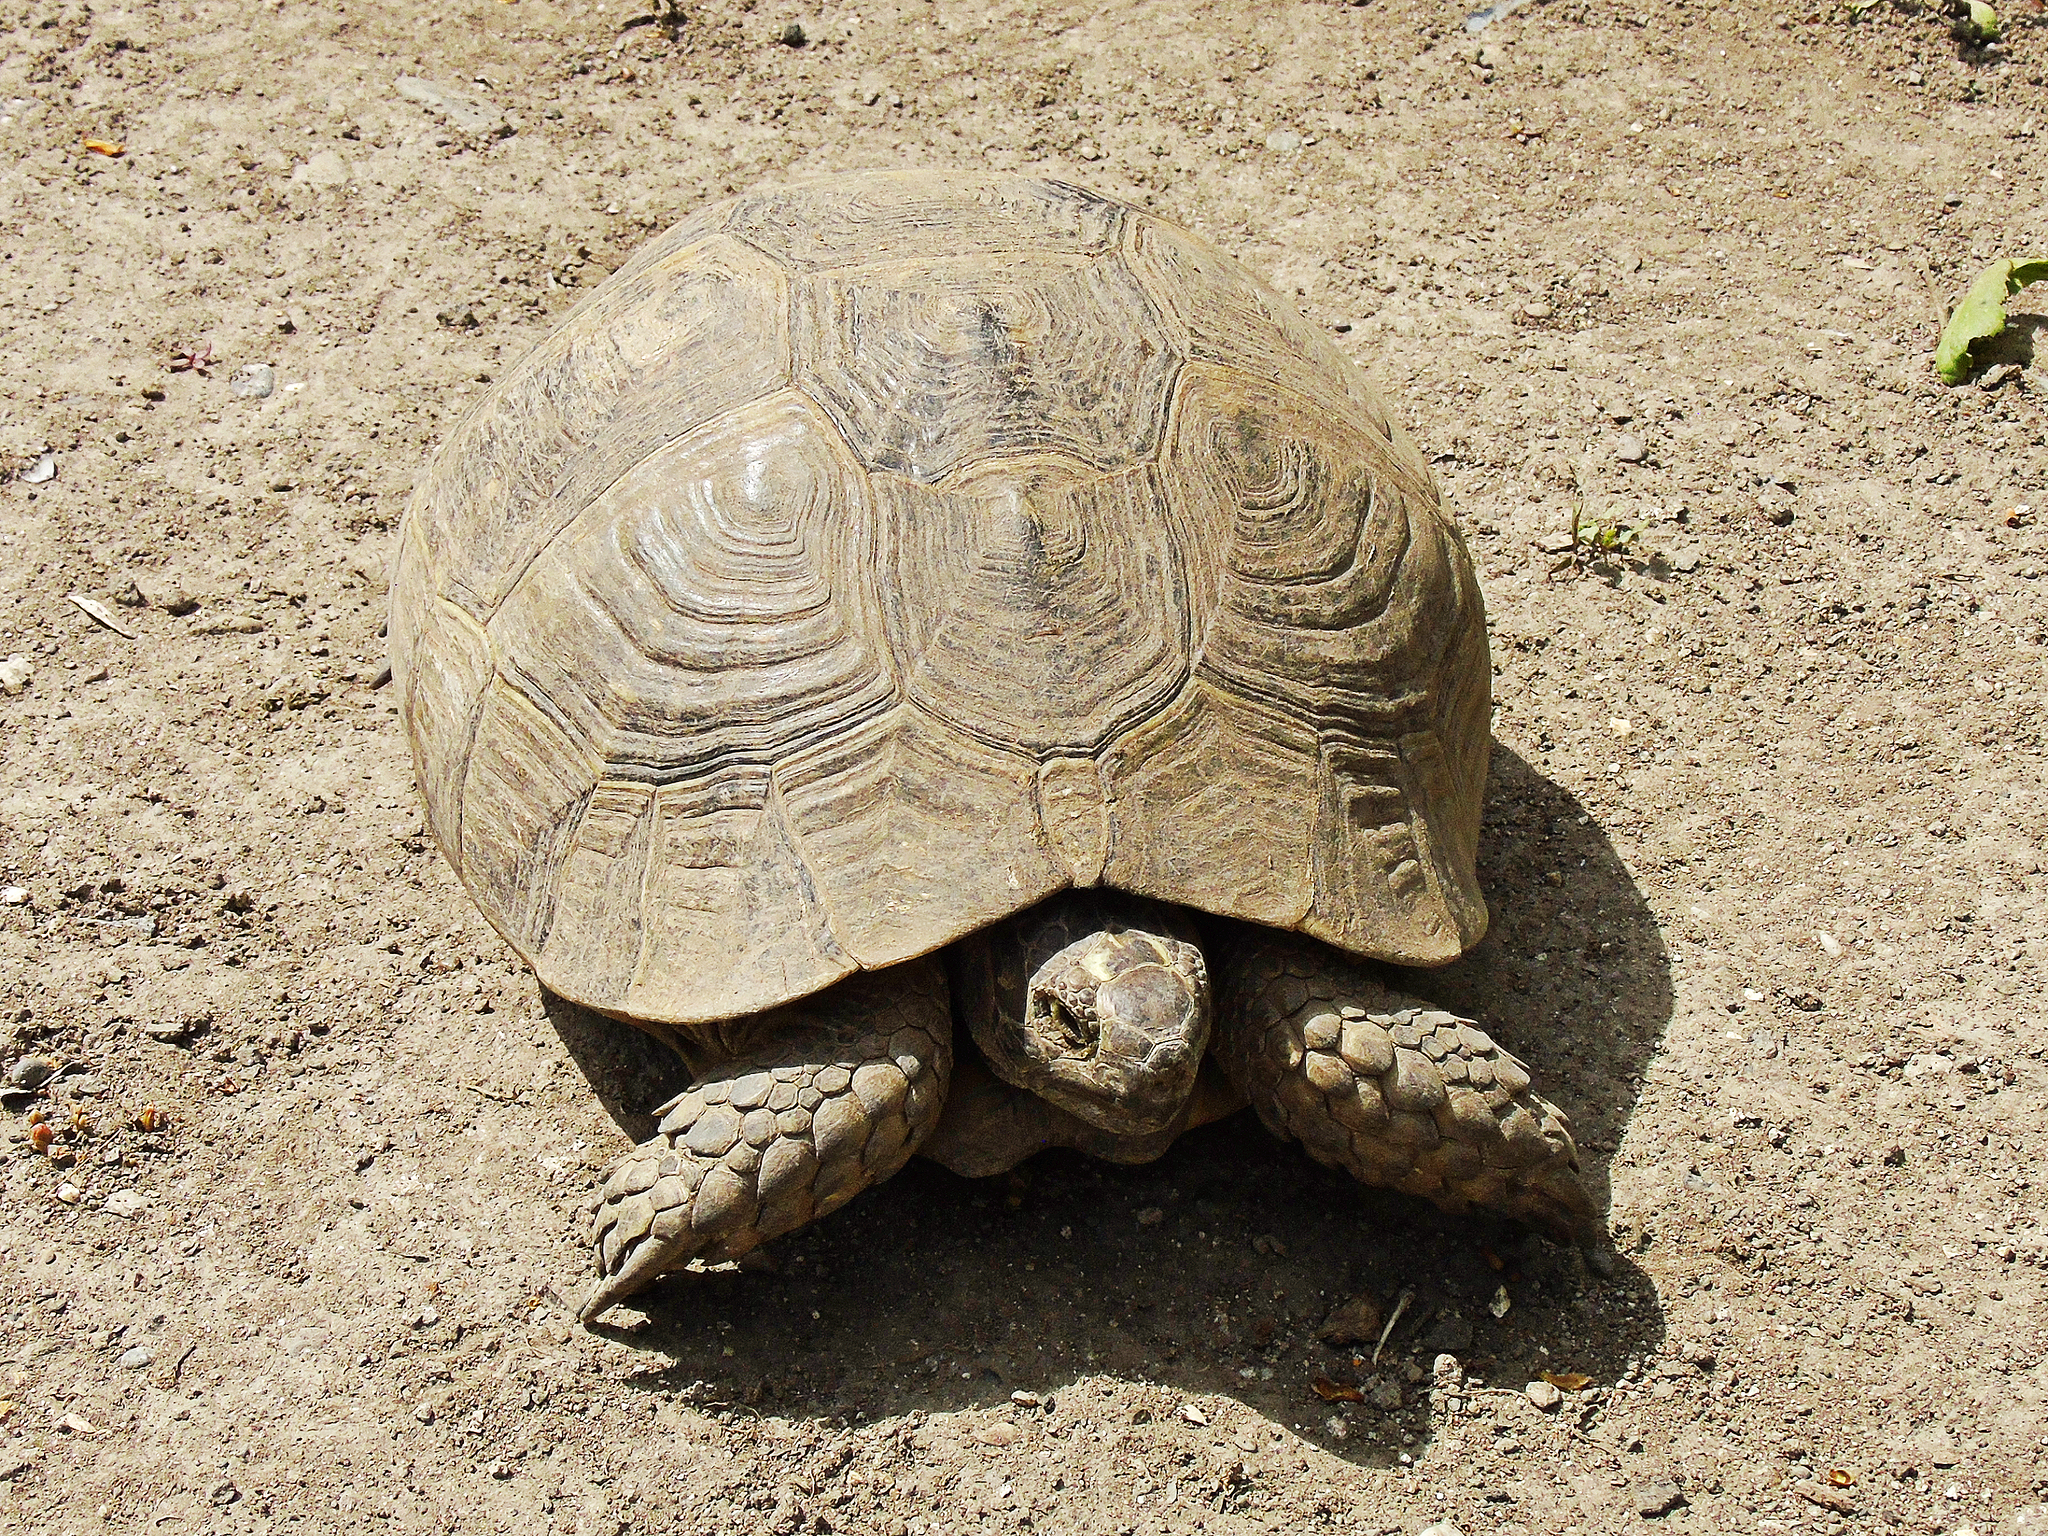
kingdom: Animalia
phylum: Chordata
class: Testudines
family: Testudinidae
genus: Testudo
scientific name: Testudo graeca
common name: Common tortoise
